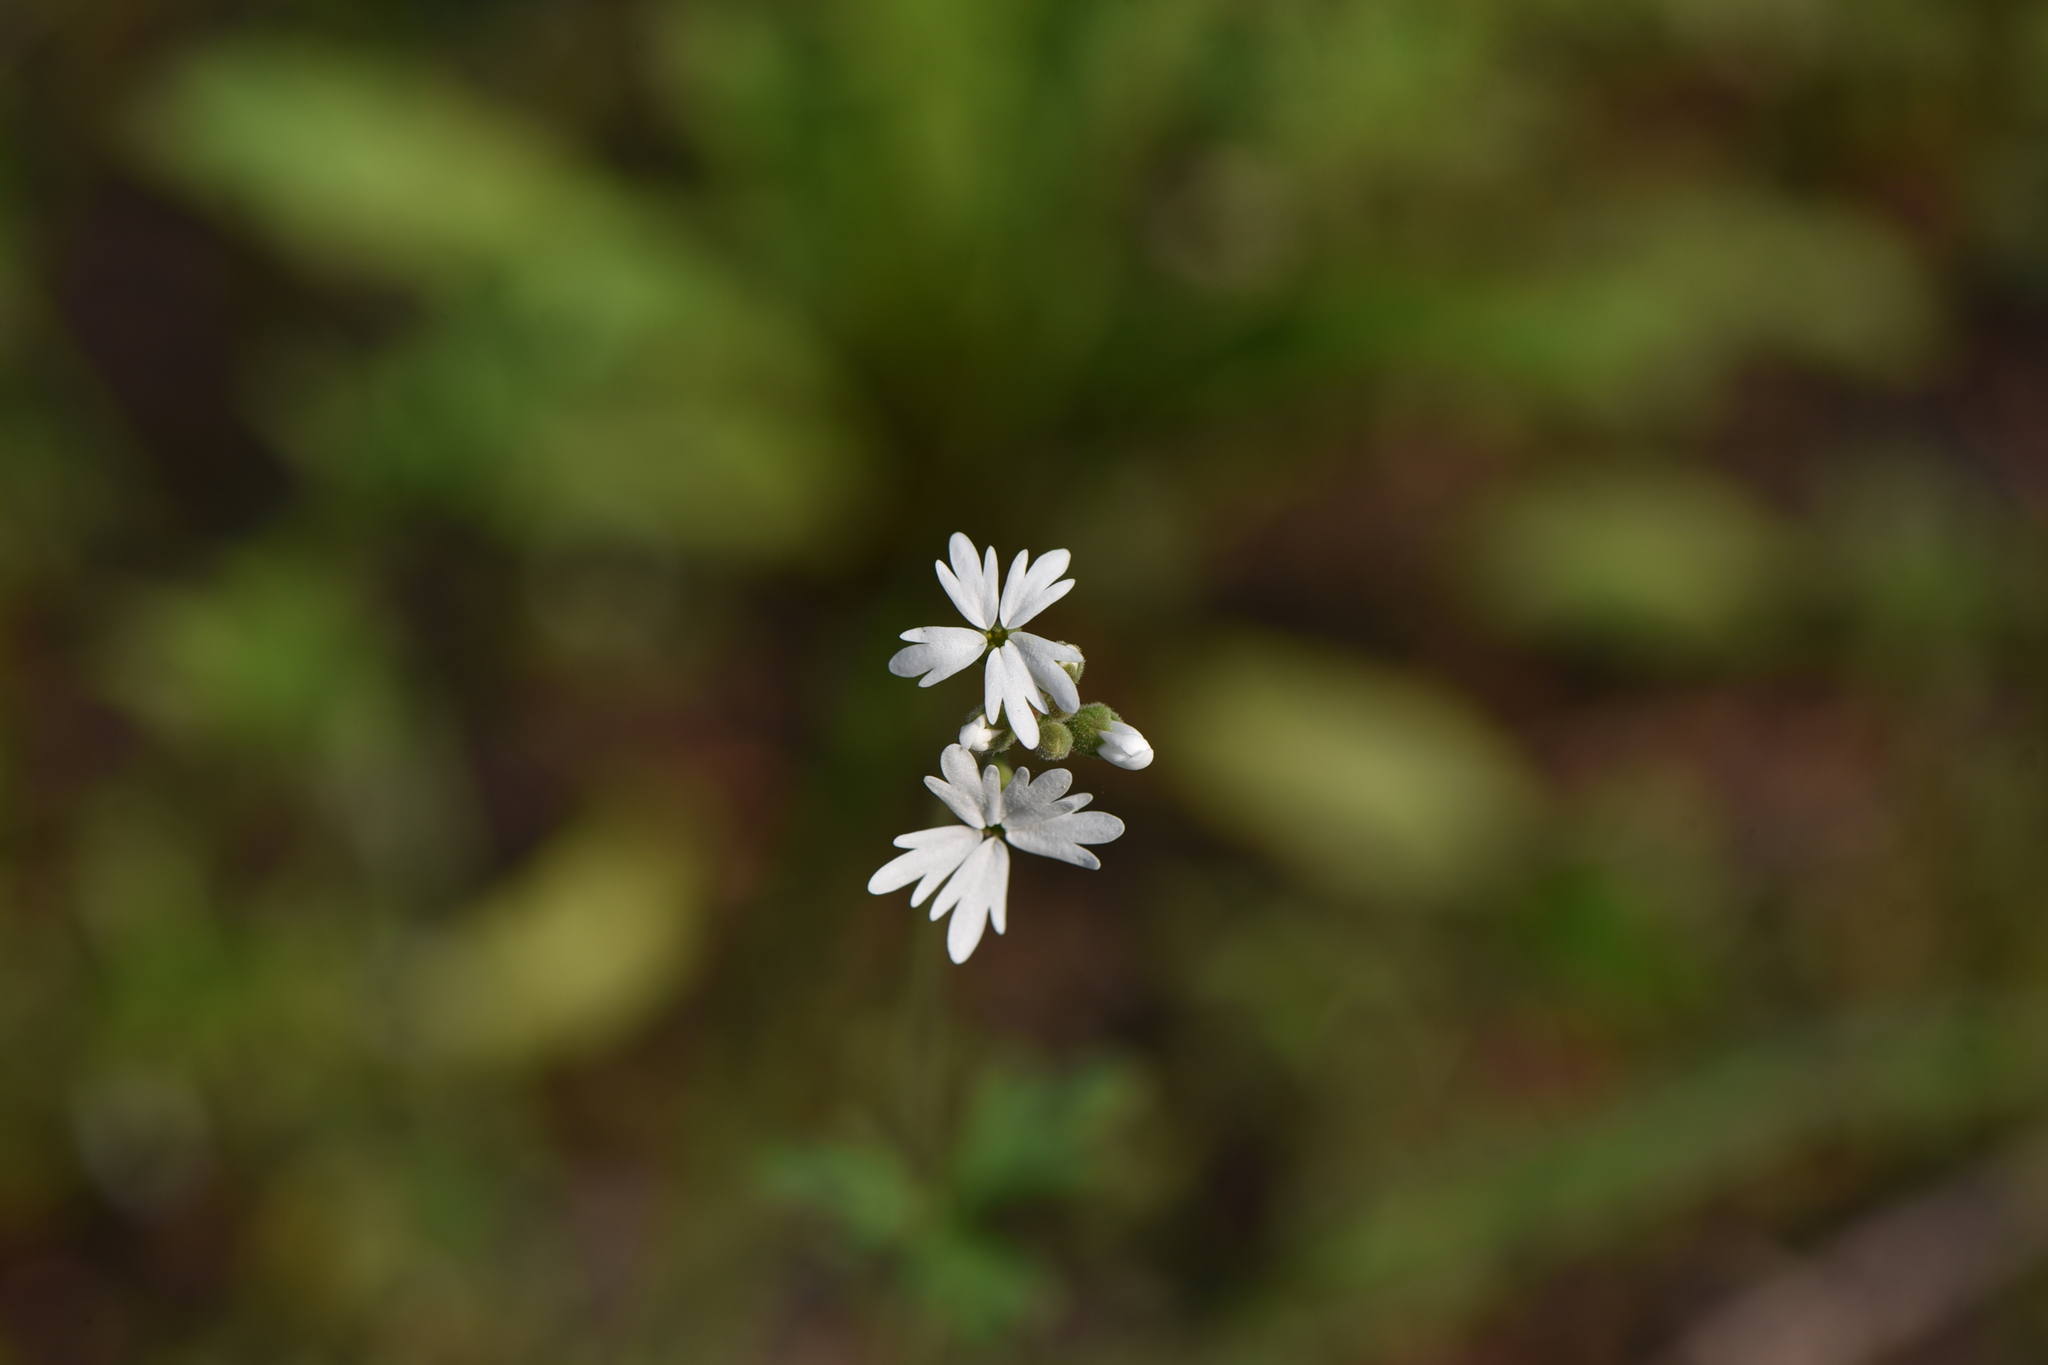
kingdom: Plantae
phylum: Tracheophyta
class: Magnoliopsida
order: Saxifragales
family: Saxifragaceae
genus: Lithophragma
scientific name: Lithophragma parviflorum
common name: Small-flowered fringe-cup
